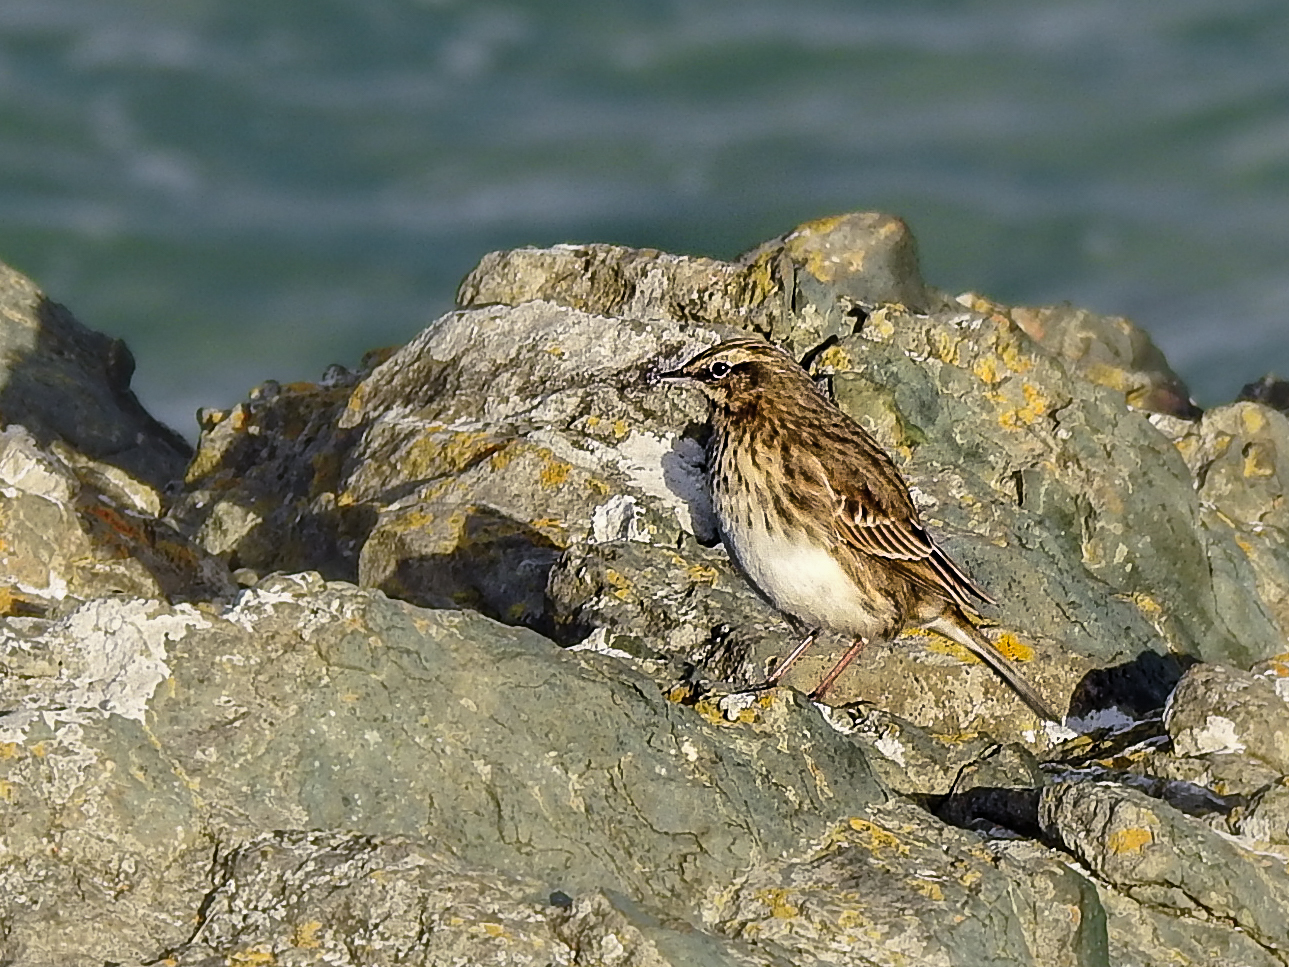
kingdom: Animalia
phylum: Chordata
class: Aves
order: Passeriformes
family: Motacillidae
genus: Anthus
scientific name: Anthus novaeseelandiae
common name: New zealand pipit
